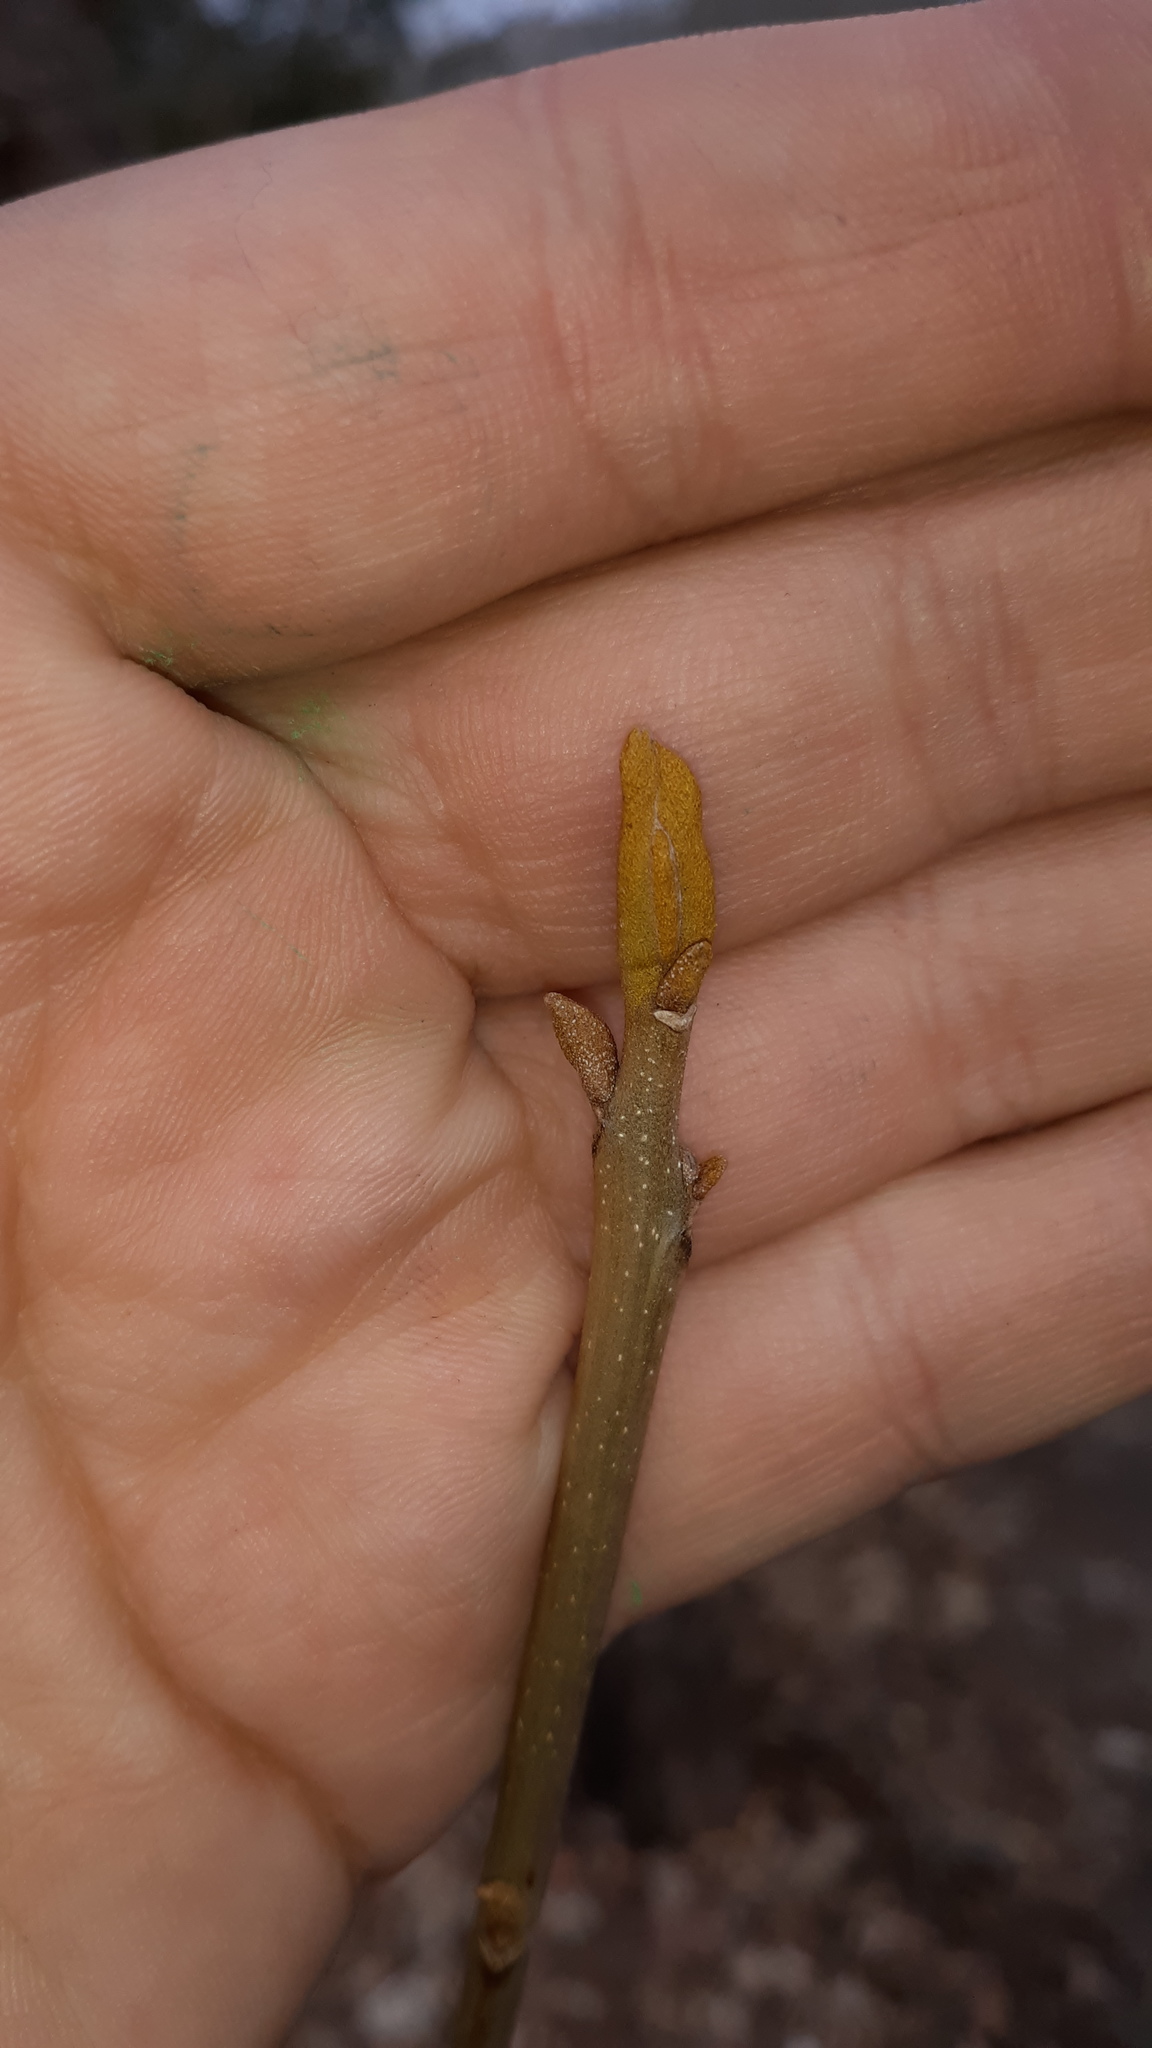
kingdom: Plantae
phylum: Tracheophyta
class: Magnoliopsida
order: Fagales
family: Juglandaceae
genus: Carya
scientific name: Carya cordiformis
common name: Bitternut hickory
